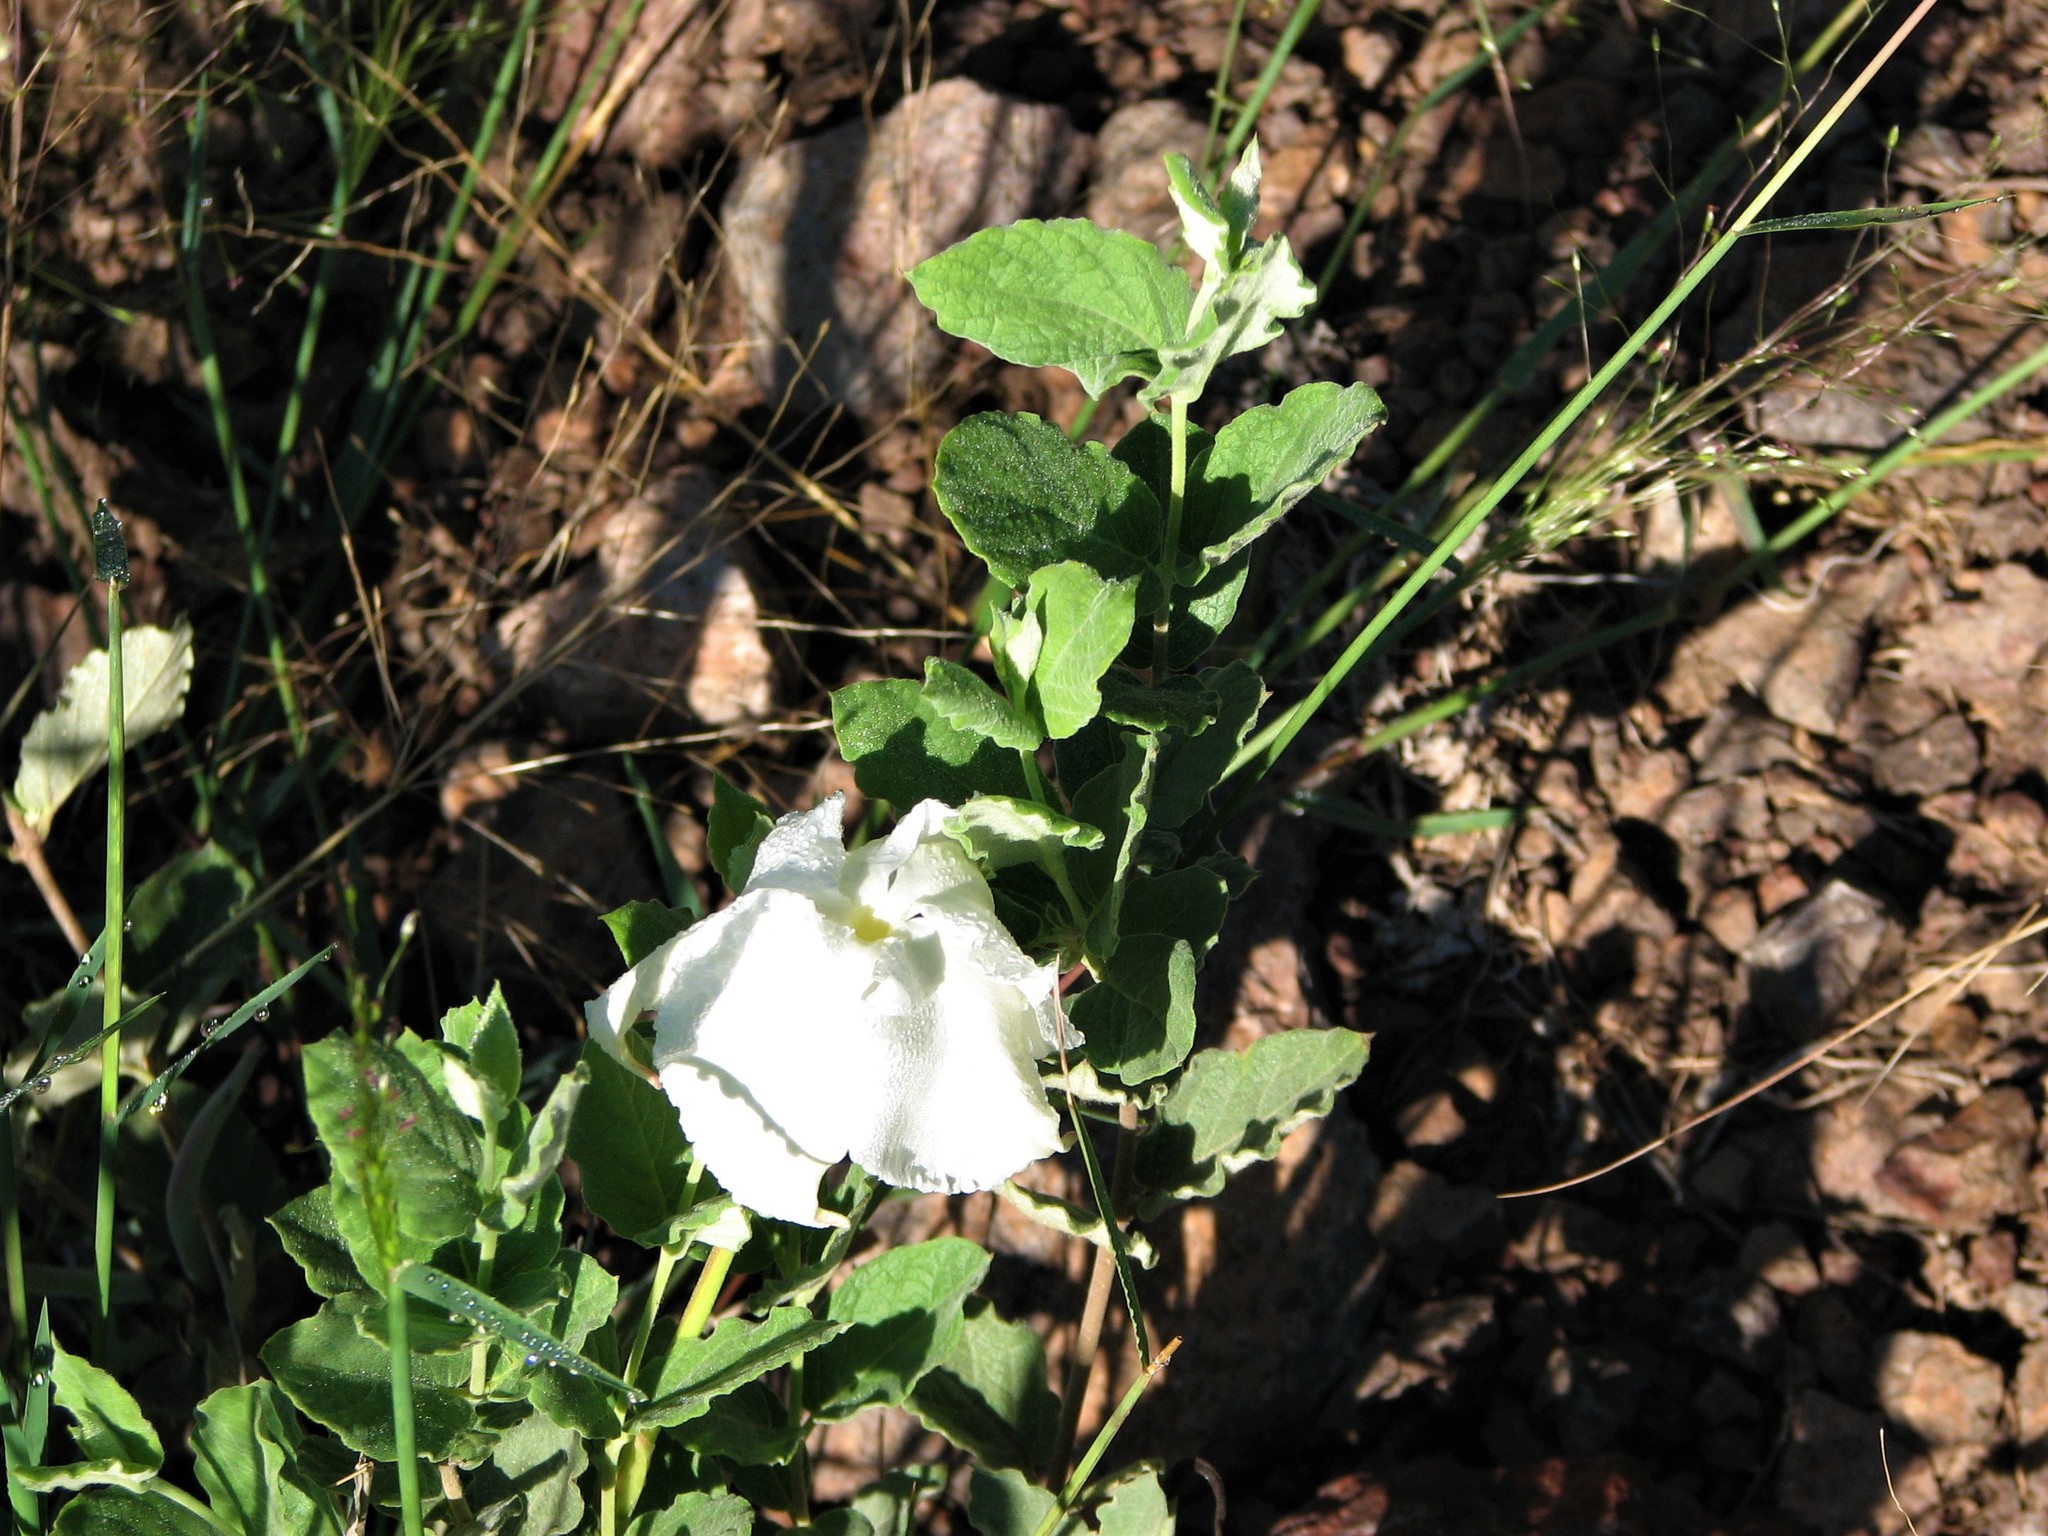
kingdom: Plantae
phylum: Tracheophyta
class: Magnoliopsida
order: Gentianales
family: Apocynaceae
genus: Mandevilla
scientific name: Mandevilla macrosiphon
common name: Plateau rocktrumpet
